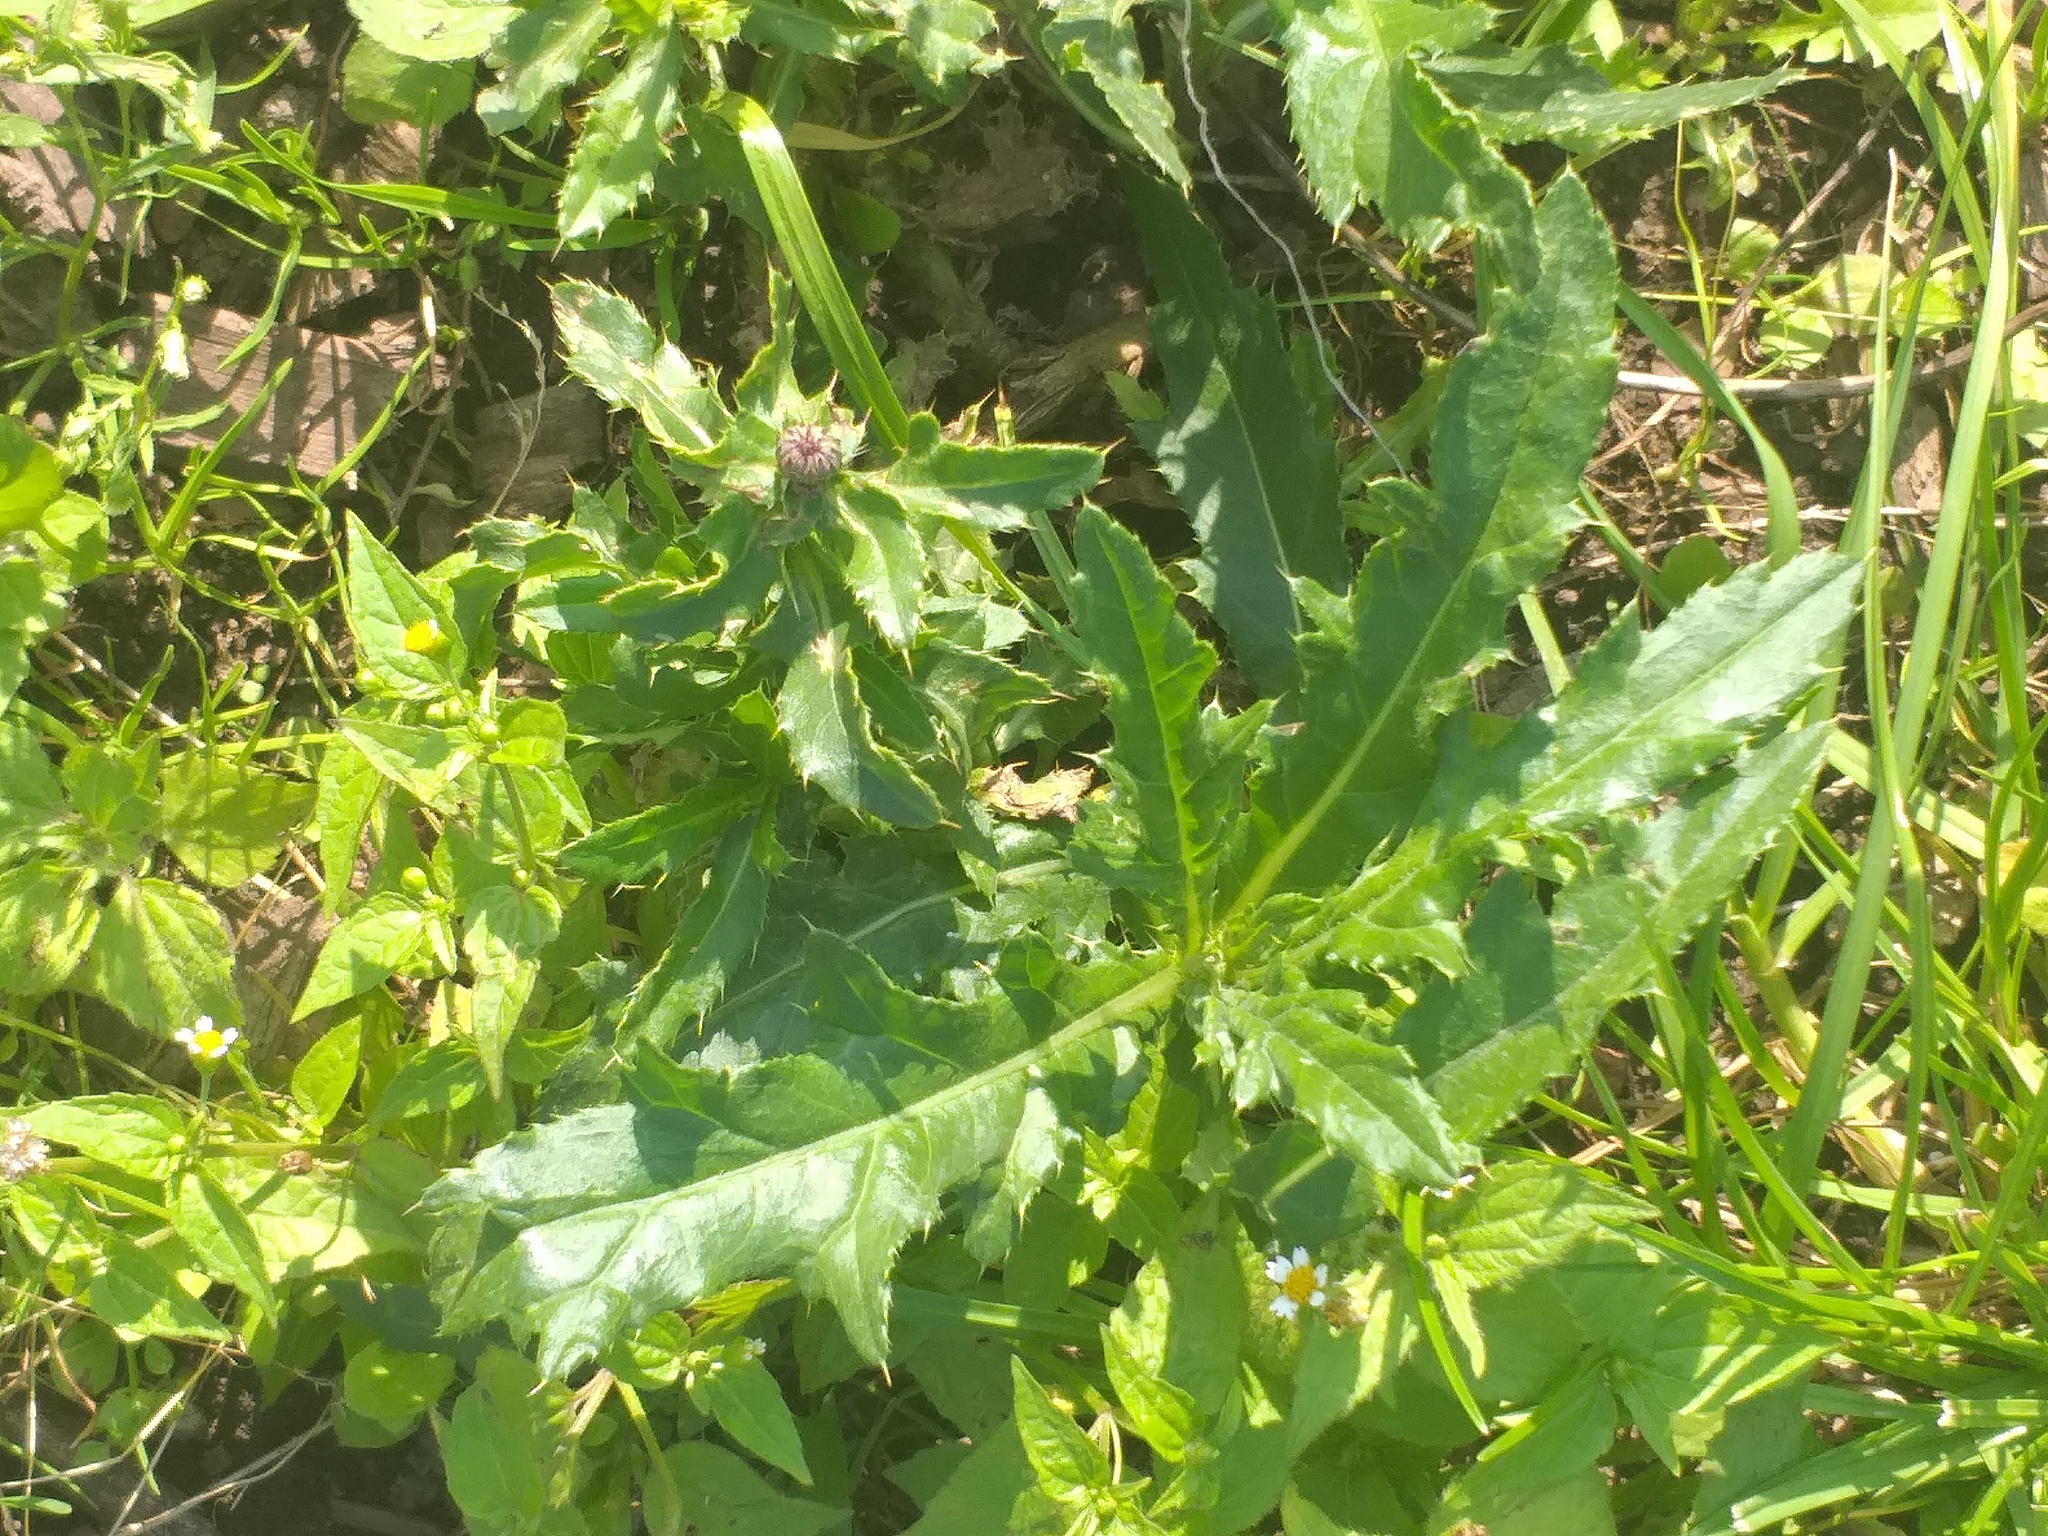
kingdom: Plantae
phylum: Tracheophyta
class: Magnoliopsida
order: Asterales
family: Asteraceae
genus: Cirsium
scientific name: Cirsium arvense
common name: Creeping thistle
